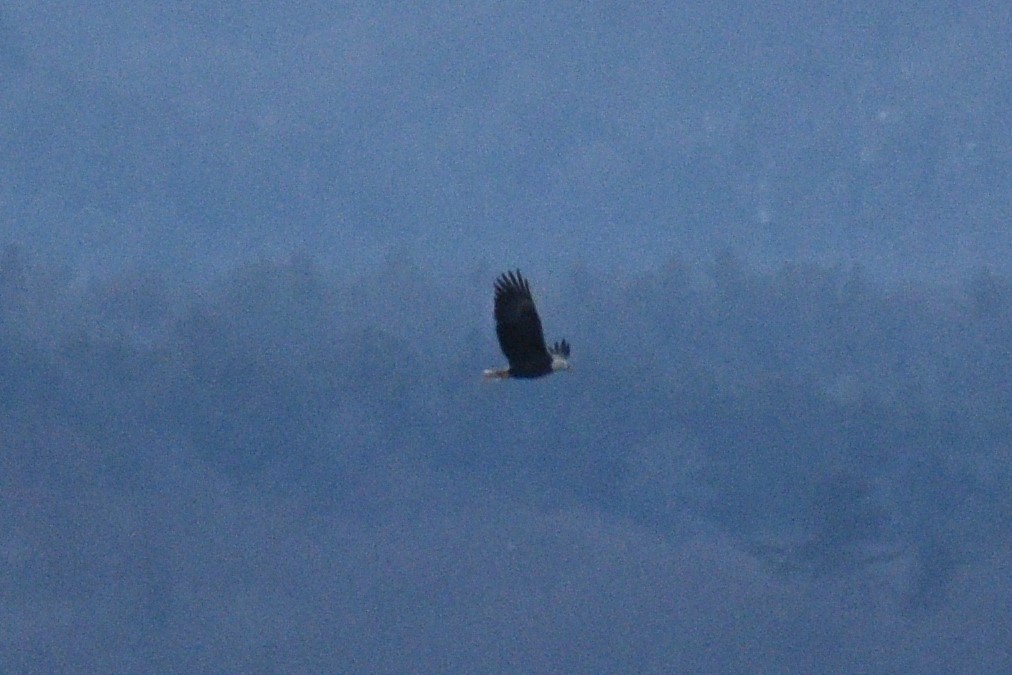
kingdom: Animalia
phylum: Chordata
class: Aves
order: Accipitriformes
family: Accipitridae
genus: Haliaeetus
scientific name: Haliaeetus leucocephalus
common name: Bald eagle
